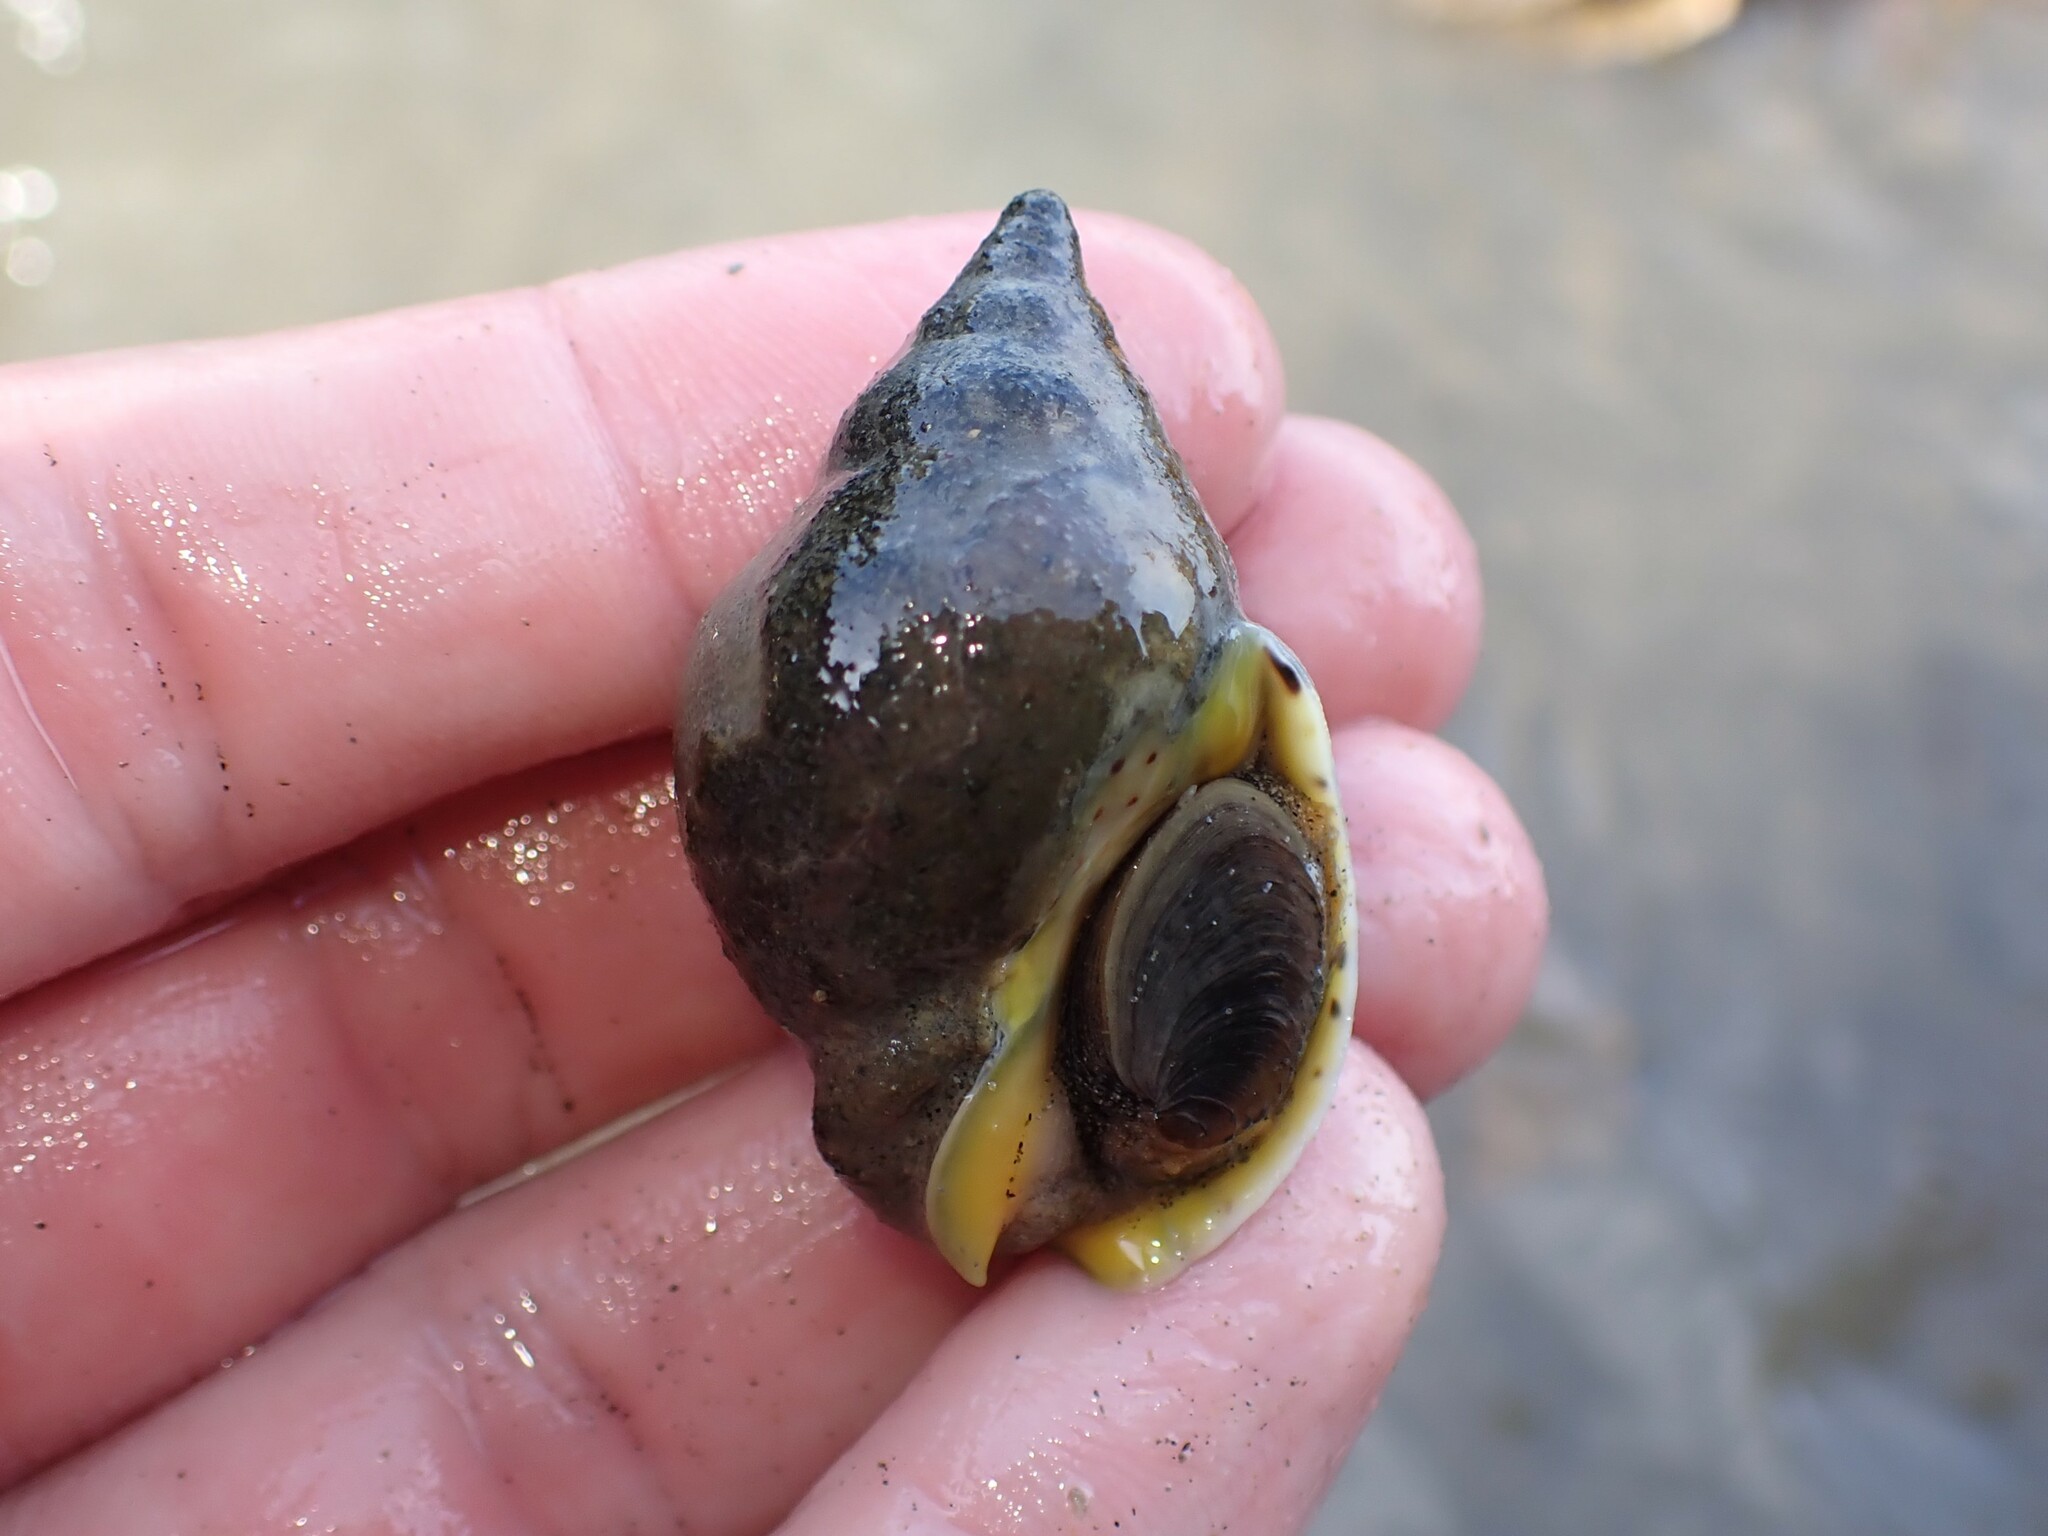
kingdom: Animalia
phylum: Mollusca
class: Gastropoda
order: Neogastropoda
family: Cominellidae
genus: Cominella
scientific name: Cominella adspersa
